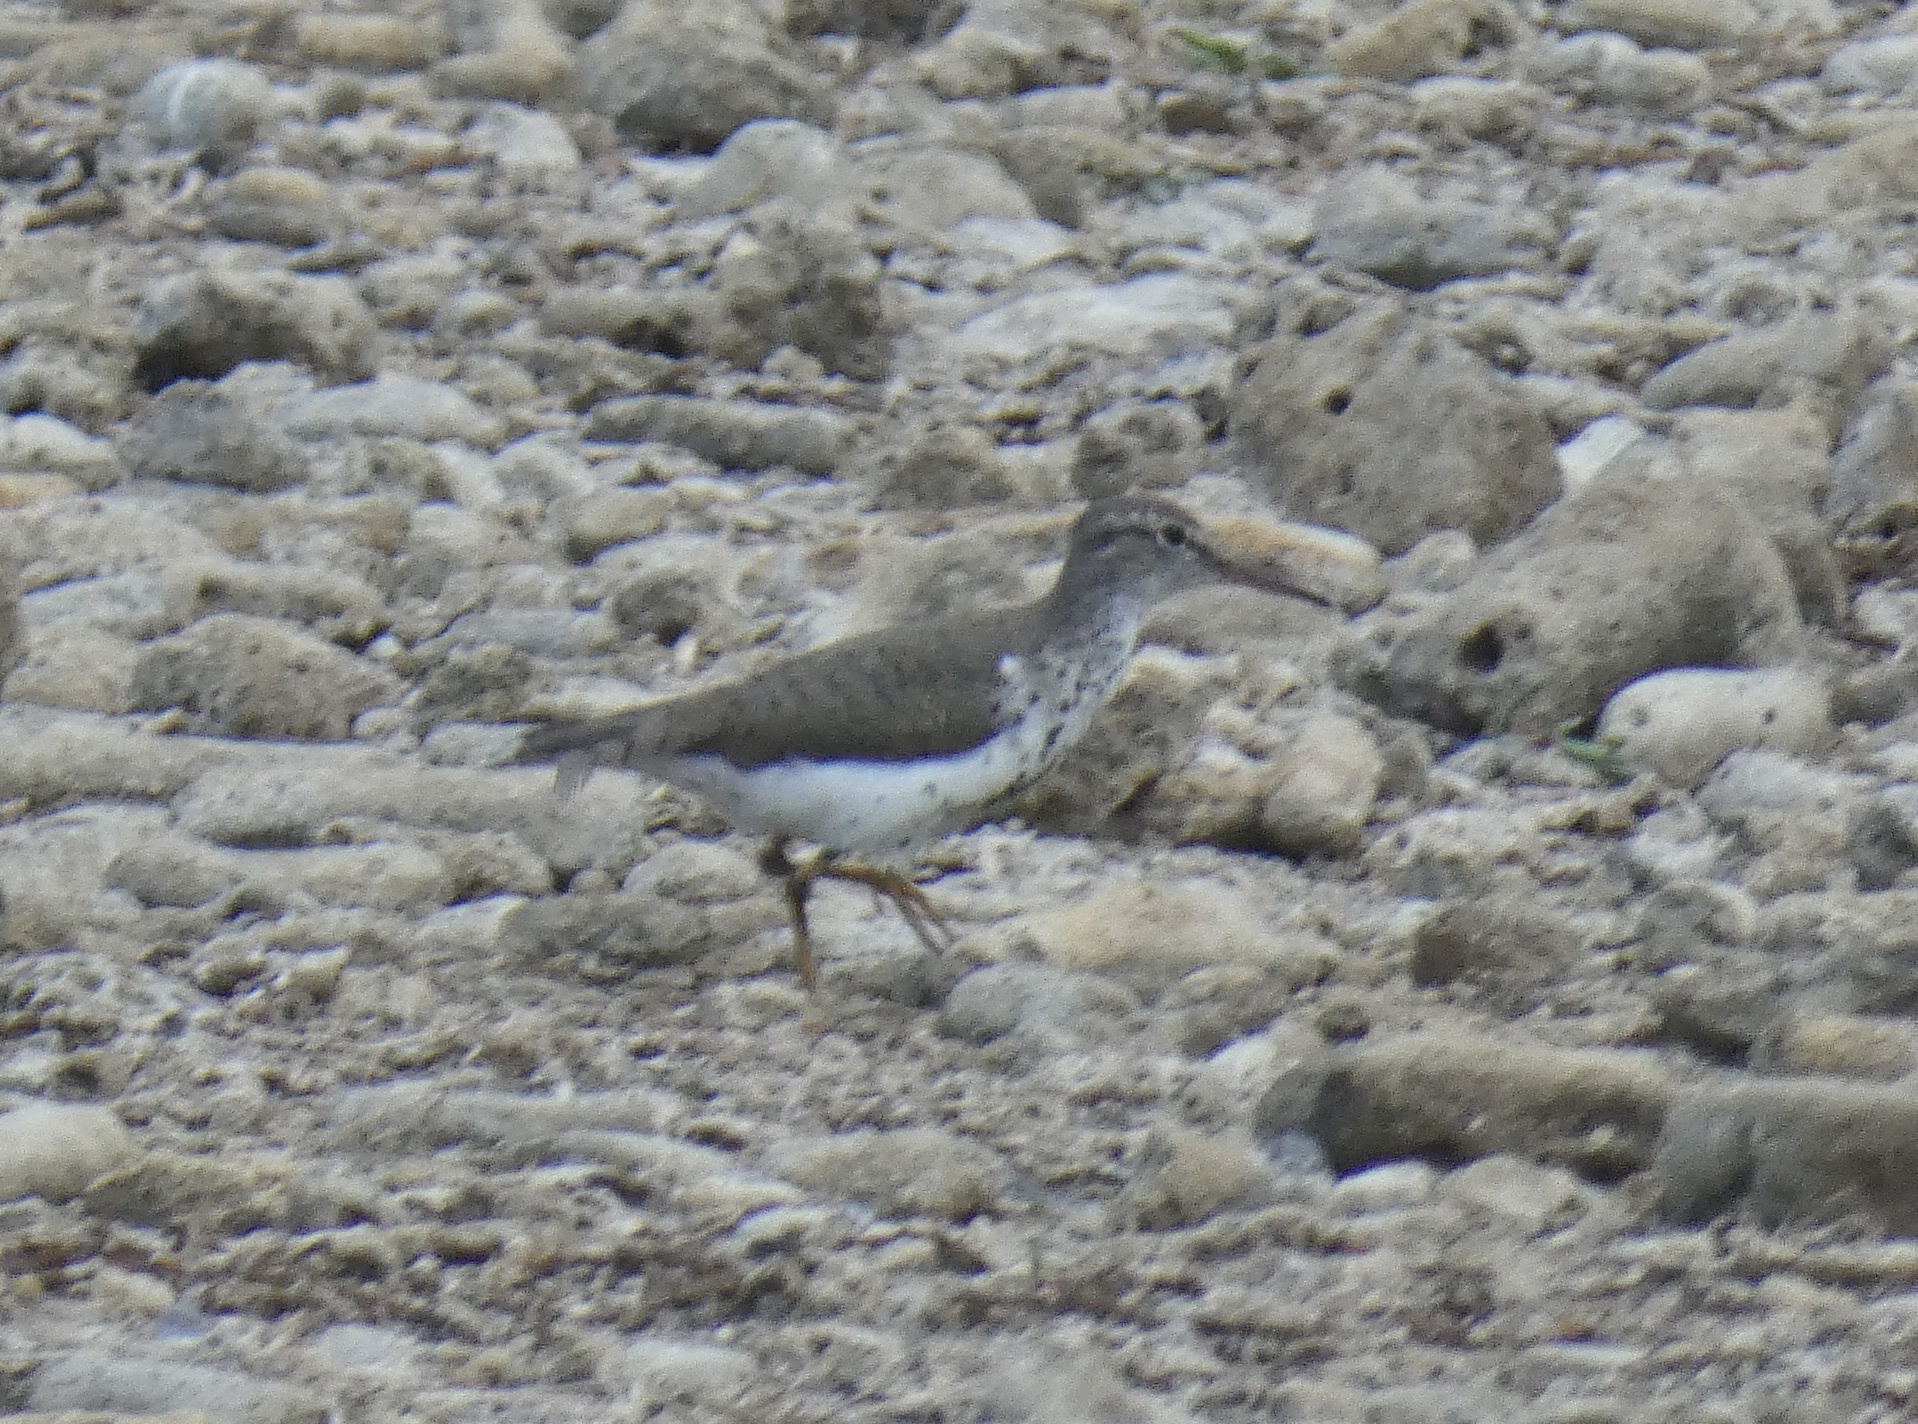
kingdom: Animalia
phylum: Chordata
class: Aves
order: Charadriiformes
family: Scolopacidae
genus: Actitis
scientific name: Actitis macularius
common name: Spotted sandpiper
